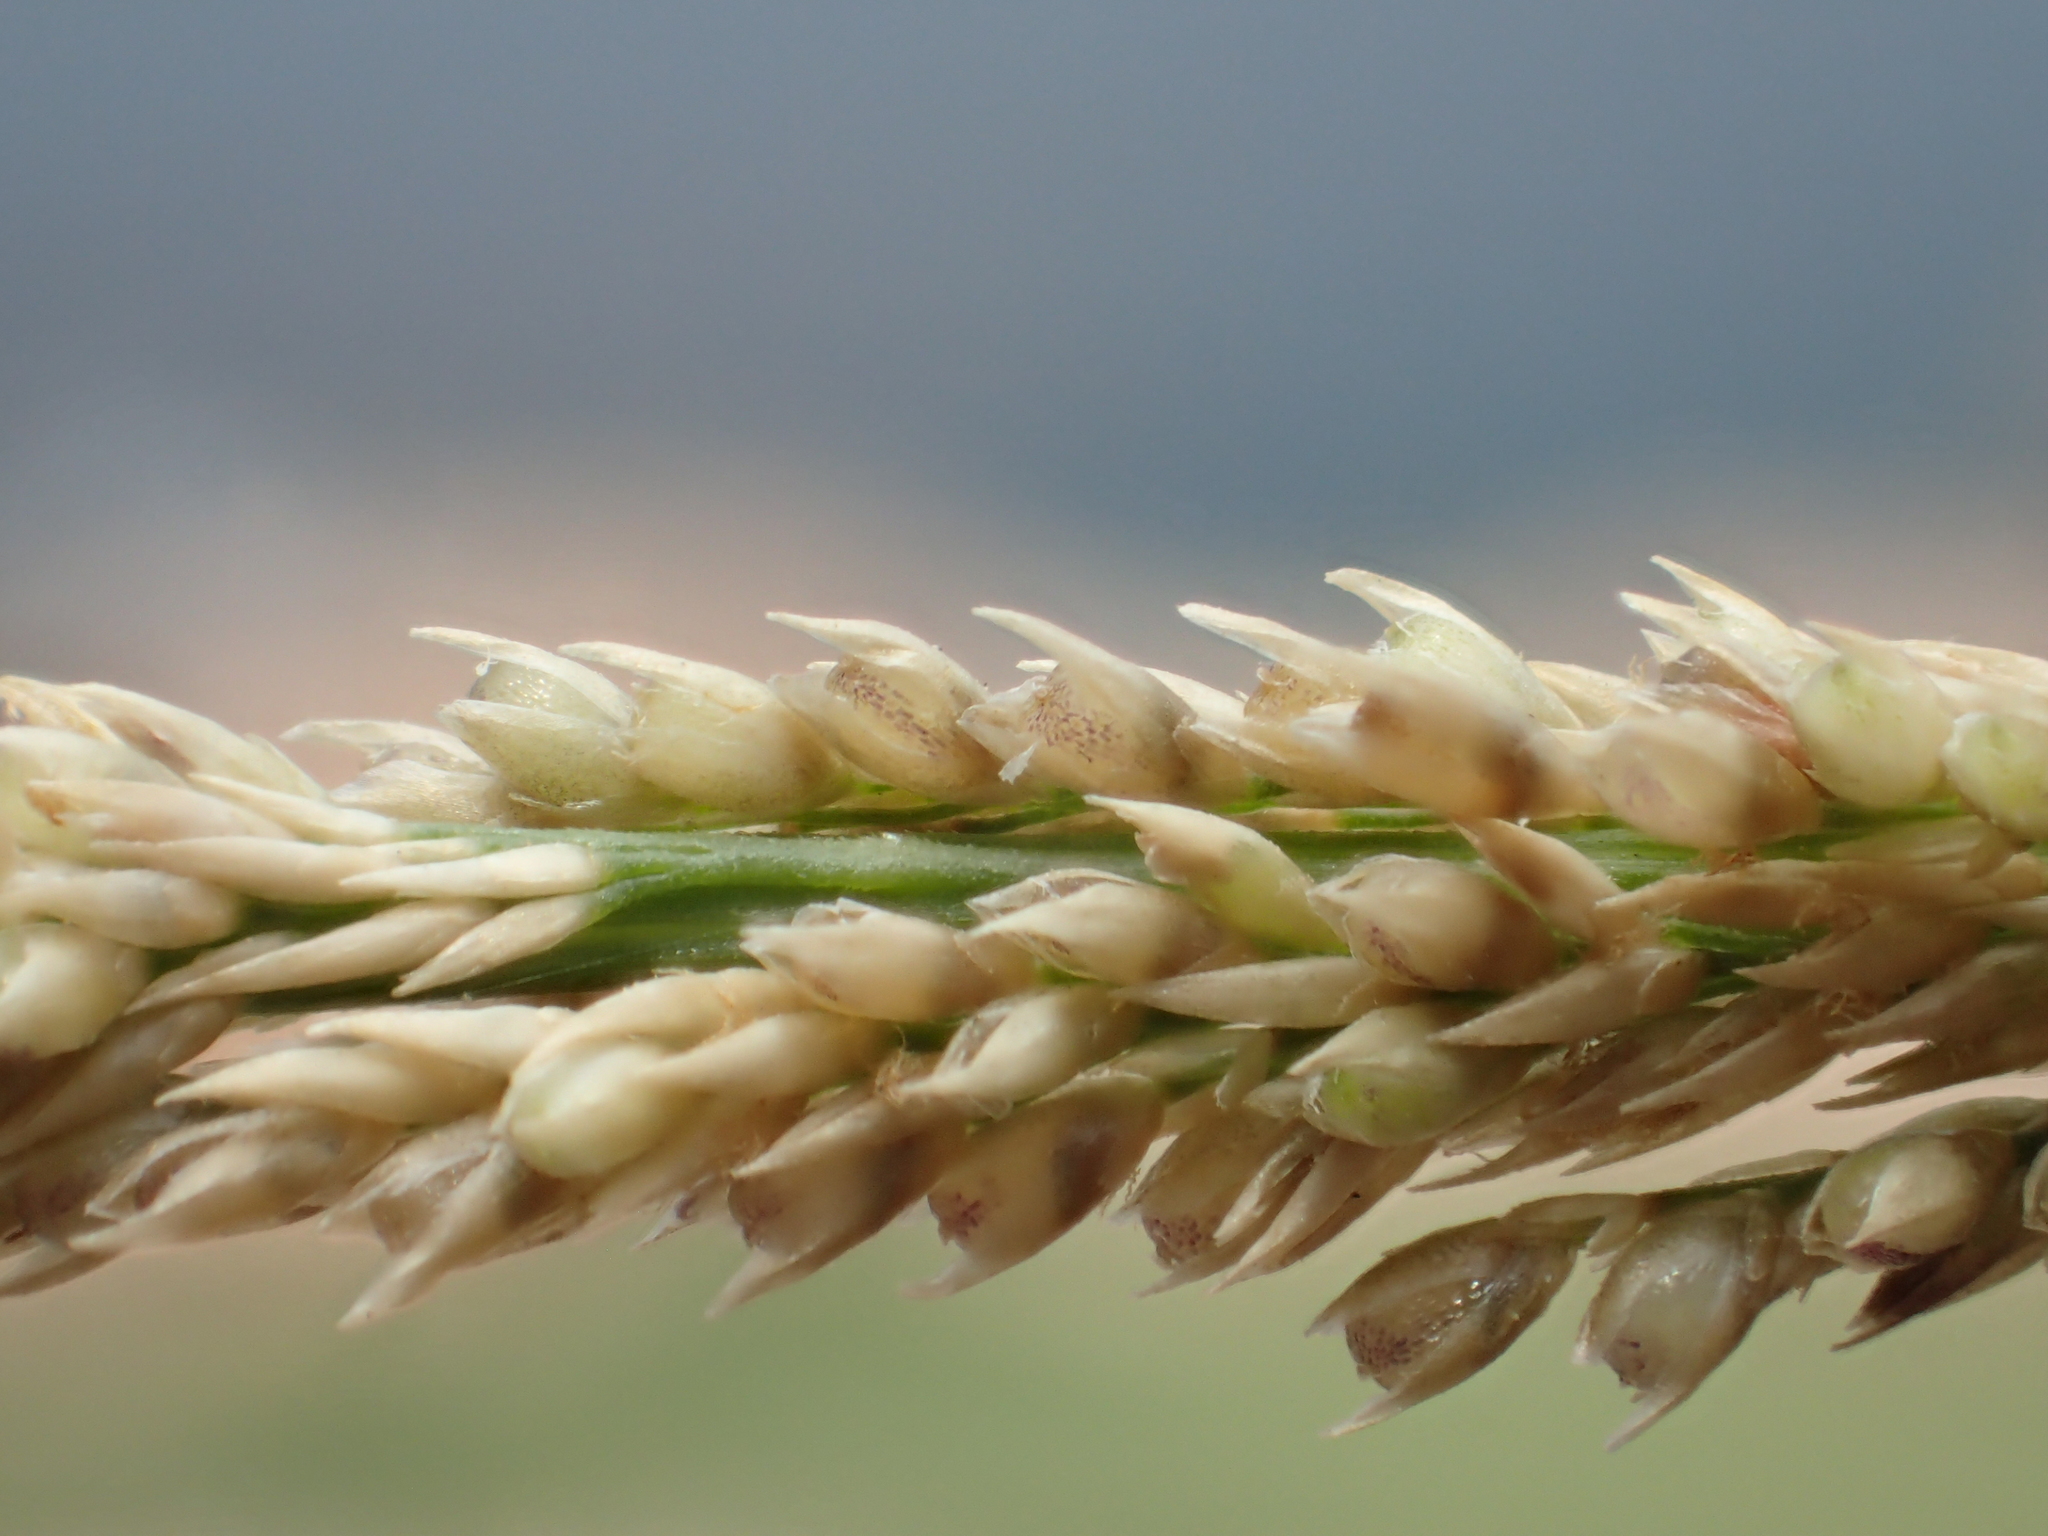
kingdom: Plantae
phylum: Tracheophyta
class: Liliopsida
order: Poales
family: Poaceae
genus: Sporobolus
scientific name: Sporobolus indicus
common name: Smut grass
